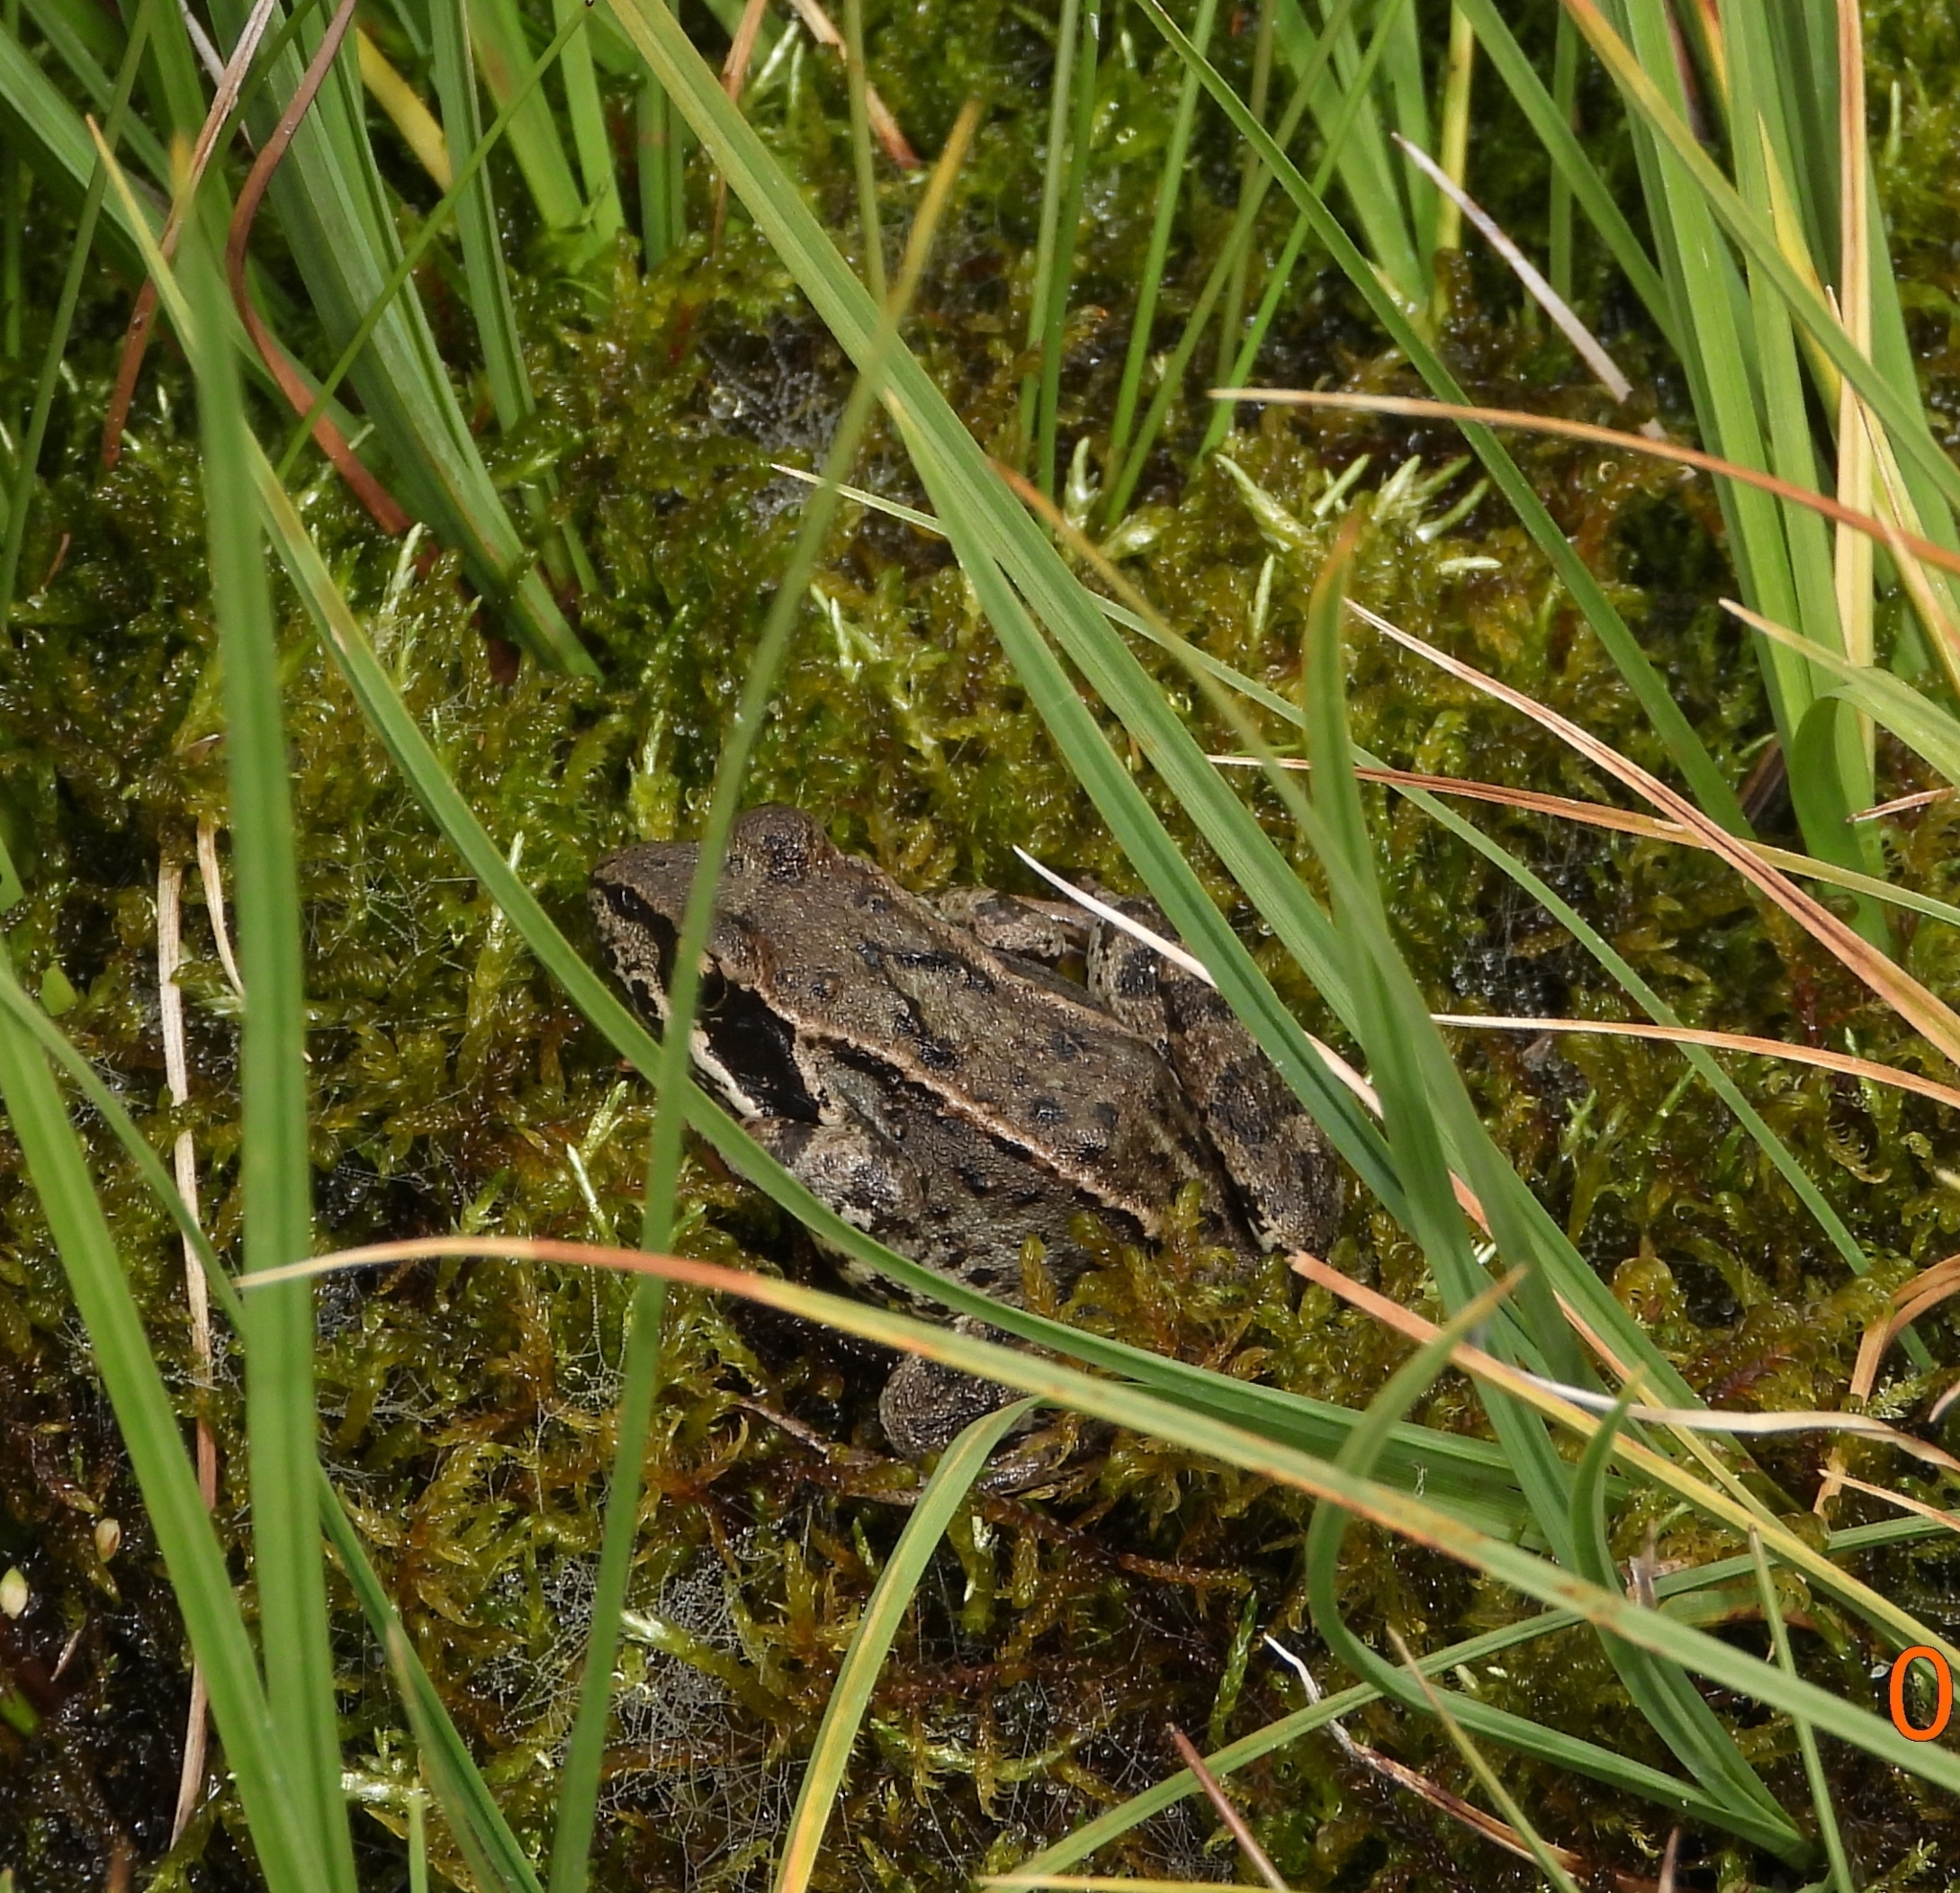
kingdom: Animalia
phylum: Chordata
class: Amphibia
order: Anura
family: Ranidae
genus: Rana
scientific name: Rana temporaria
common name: Common frog
